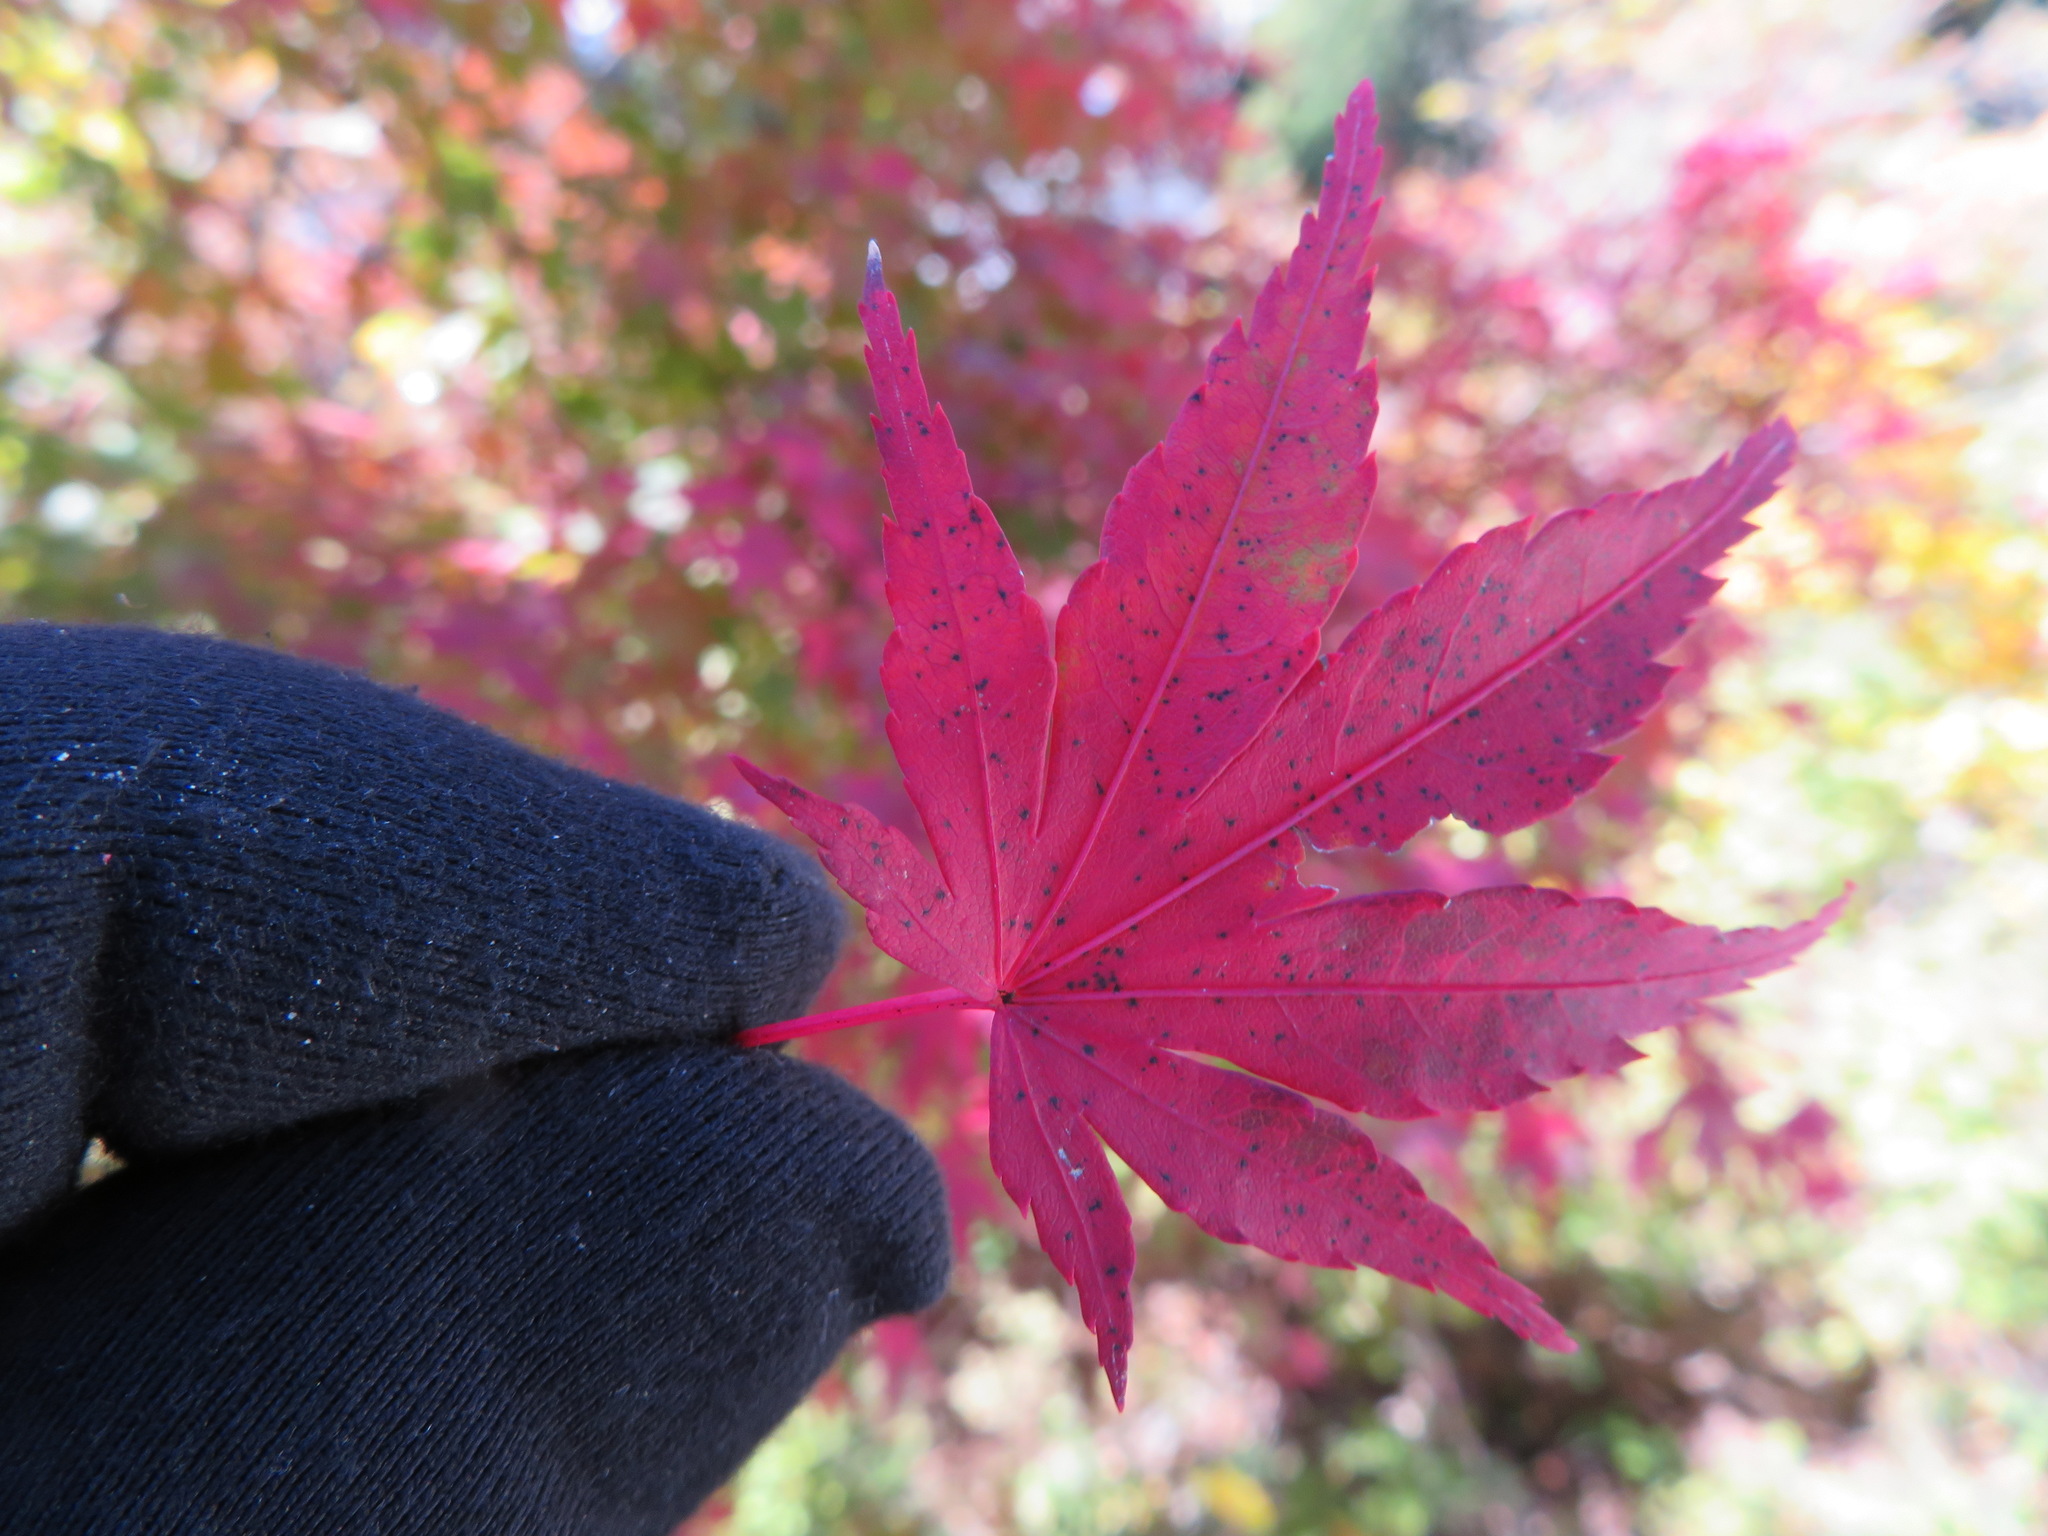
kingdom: Plantae
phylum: Tracheophyta
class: Magnoliopsida
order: Sapindales
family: Sapindaceae
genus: Acer
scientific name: Acer palmatum
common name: Japanese maple
